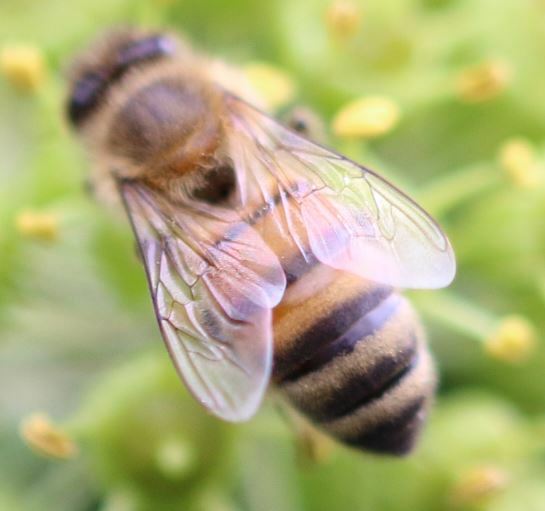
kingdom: Animalia
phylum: Arthropoda
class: Insecta
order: Hymenoptera
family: Apidae
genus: Apis
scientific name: Apis mellifera
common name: Honey bee
